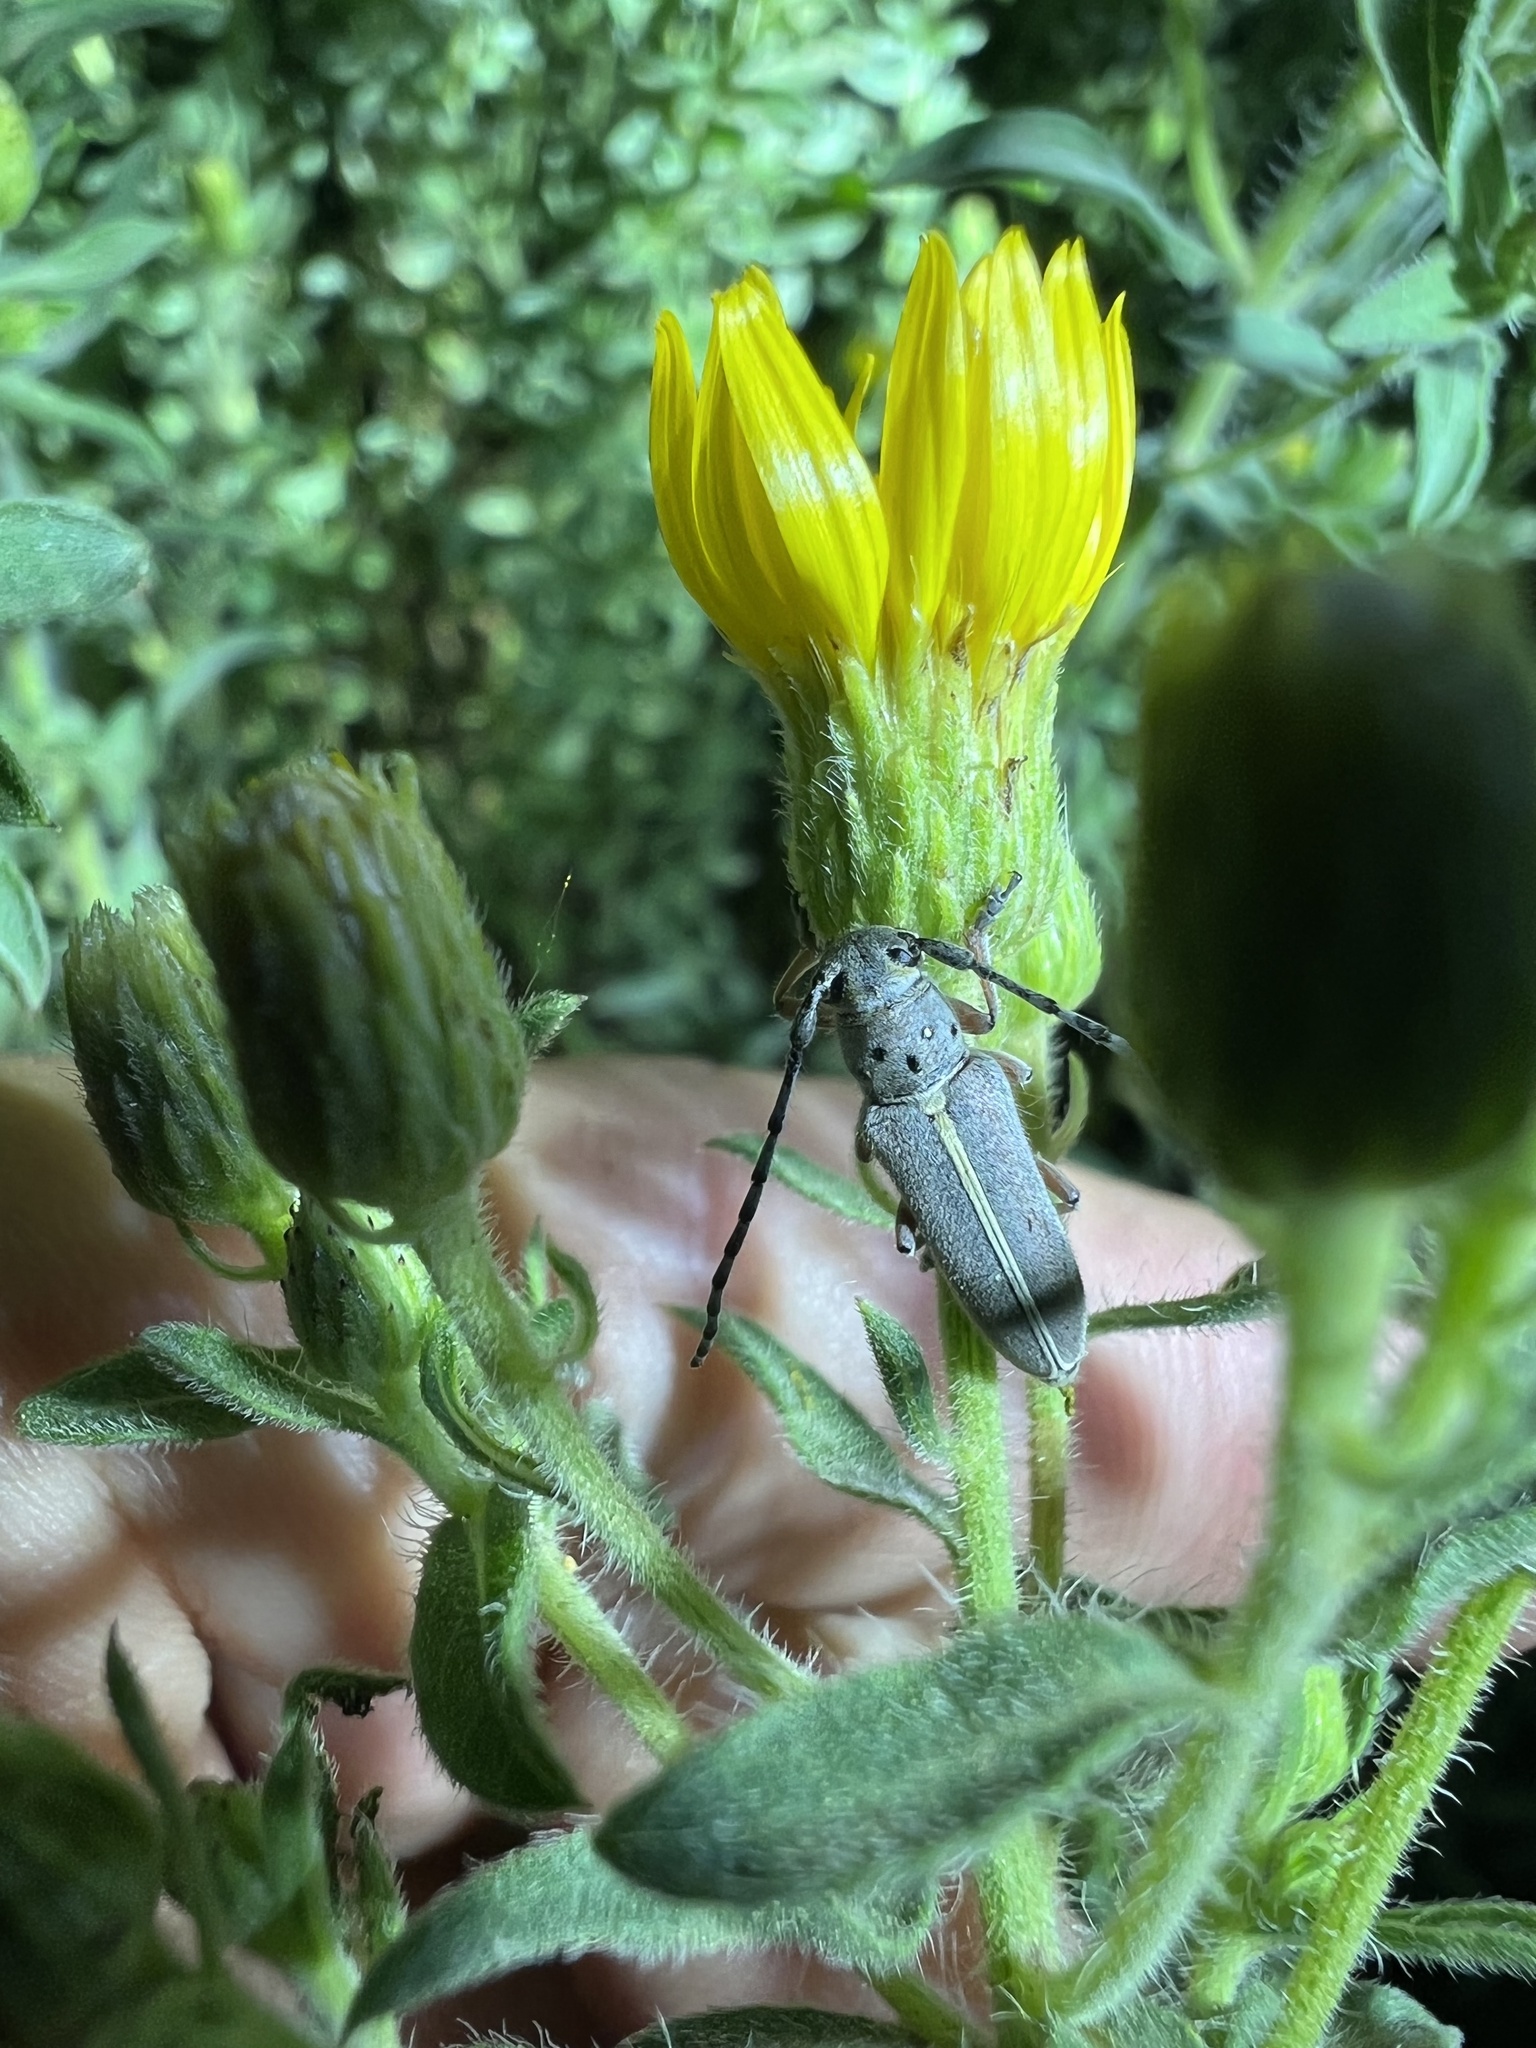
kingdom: Animalia
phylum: Arthropoda
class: Insecta
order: Coleoptera
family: Cerambycidae
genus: Mecas
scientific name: Mecas pergrata
